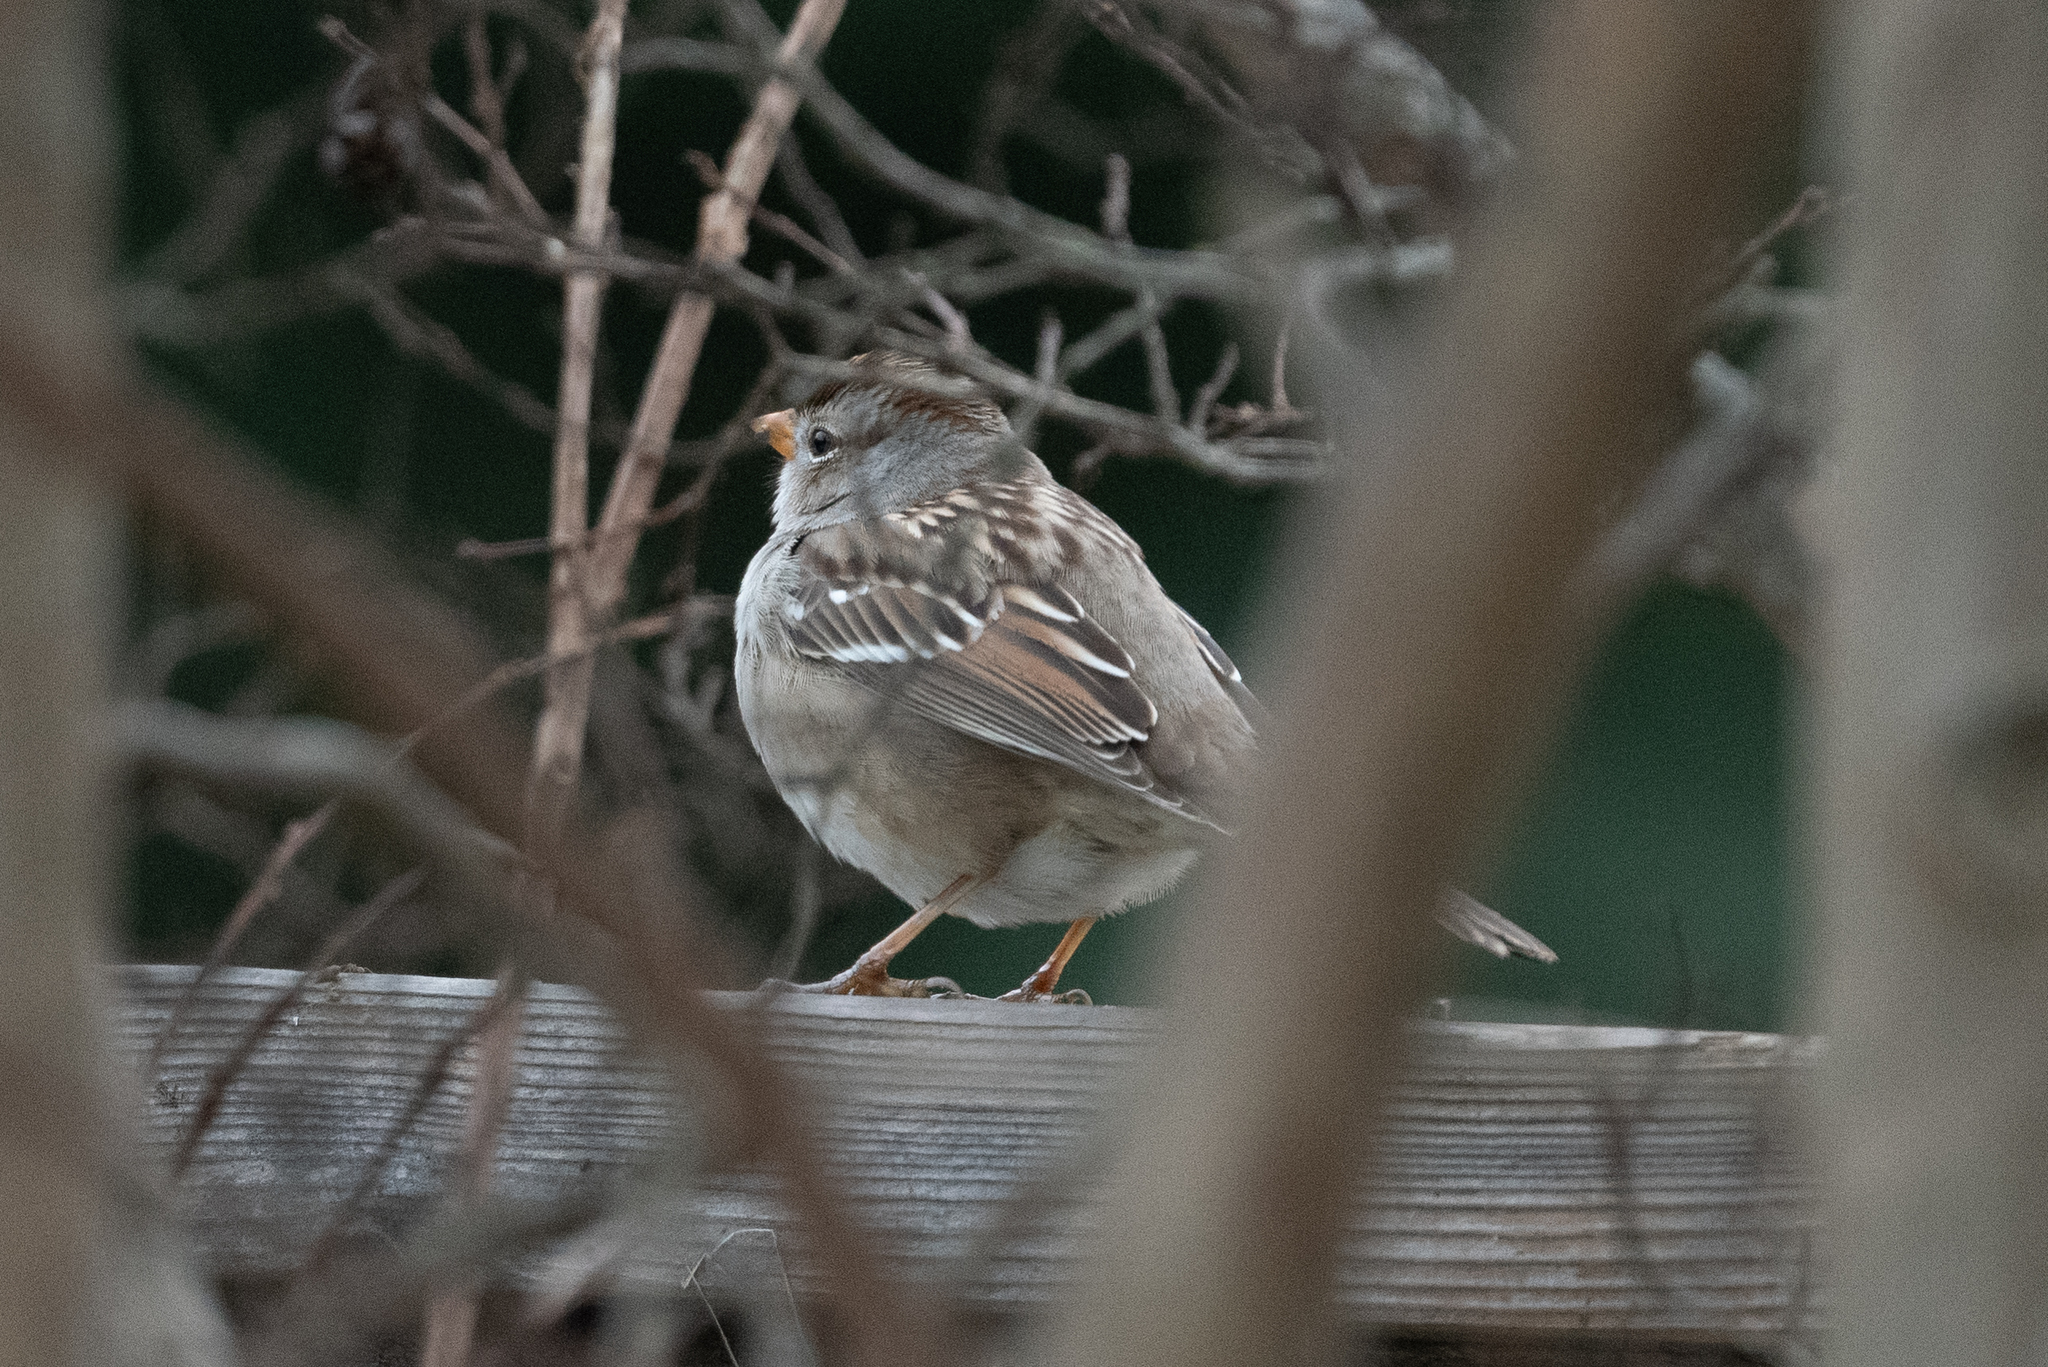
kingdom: Animalia
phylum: Chordata
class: Aves
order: Passeriformes
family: Passerellidae
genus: Zonotrichia
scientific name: Zonotrichia leucophrys
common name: White-crowned sparrow
